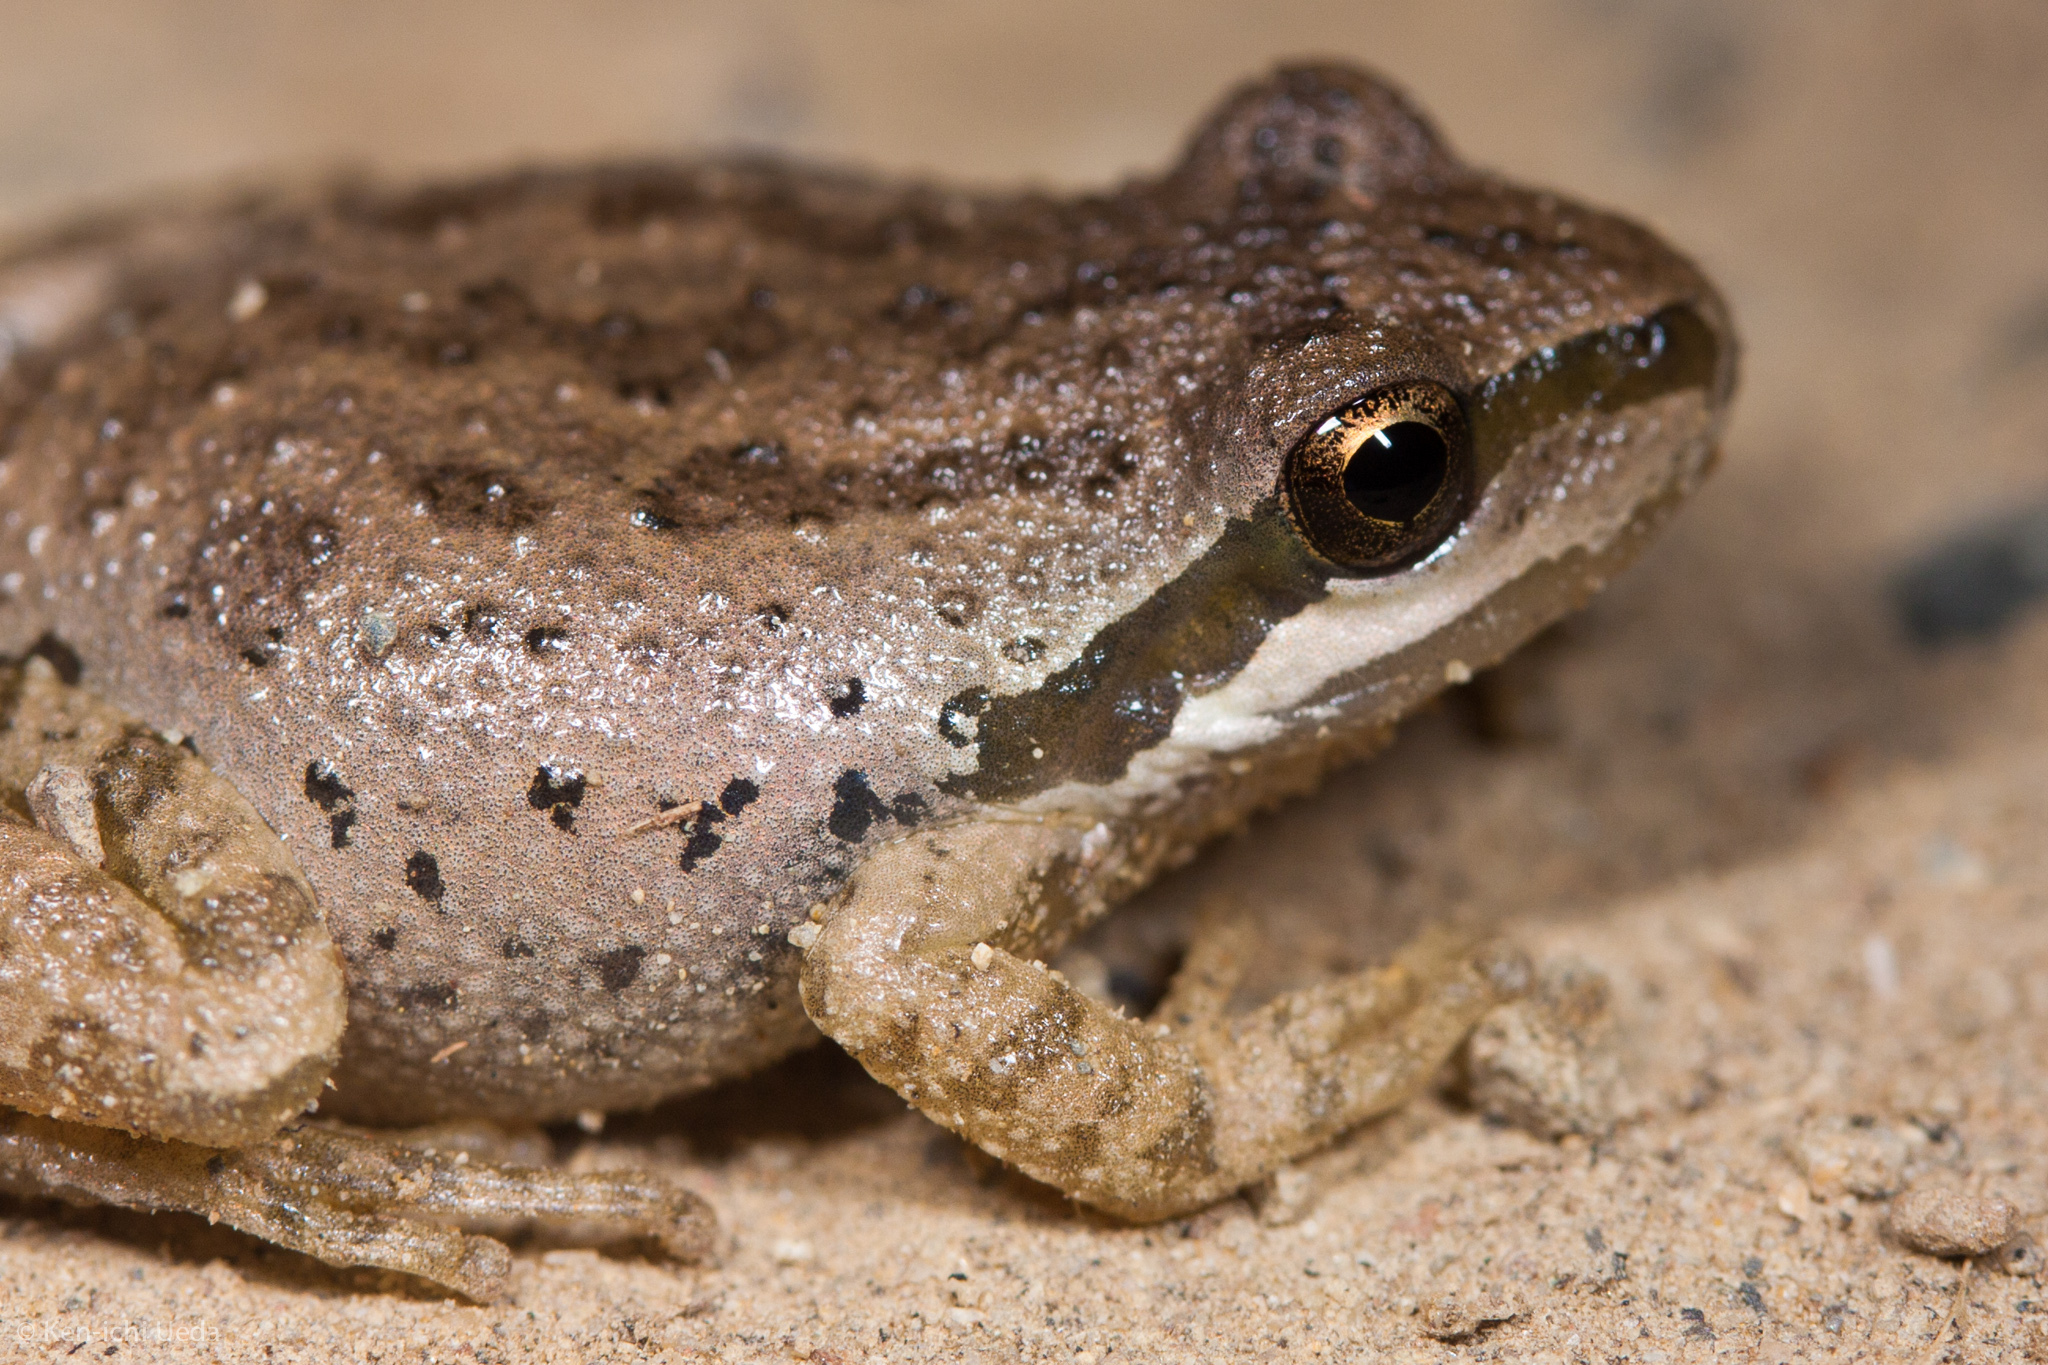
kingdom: Animalia
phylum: Chordata
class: Amphibia
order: Anura
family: Hylidae
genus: Pseudacris
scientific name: Pseudacris regilla
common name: Pacific chorus frog
